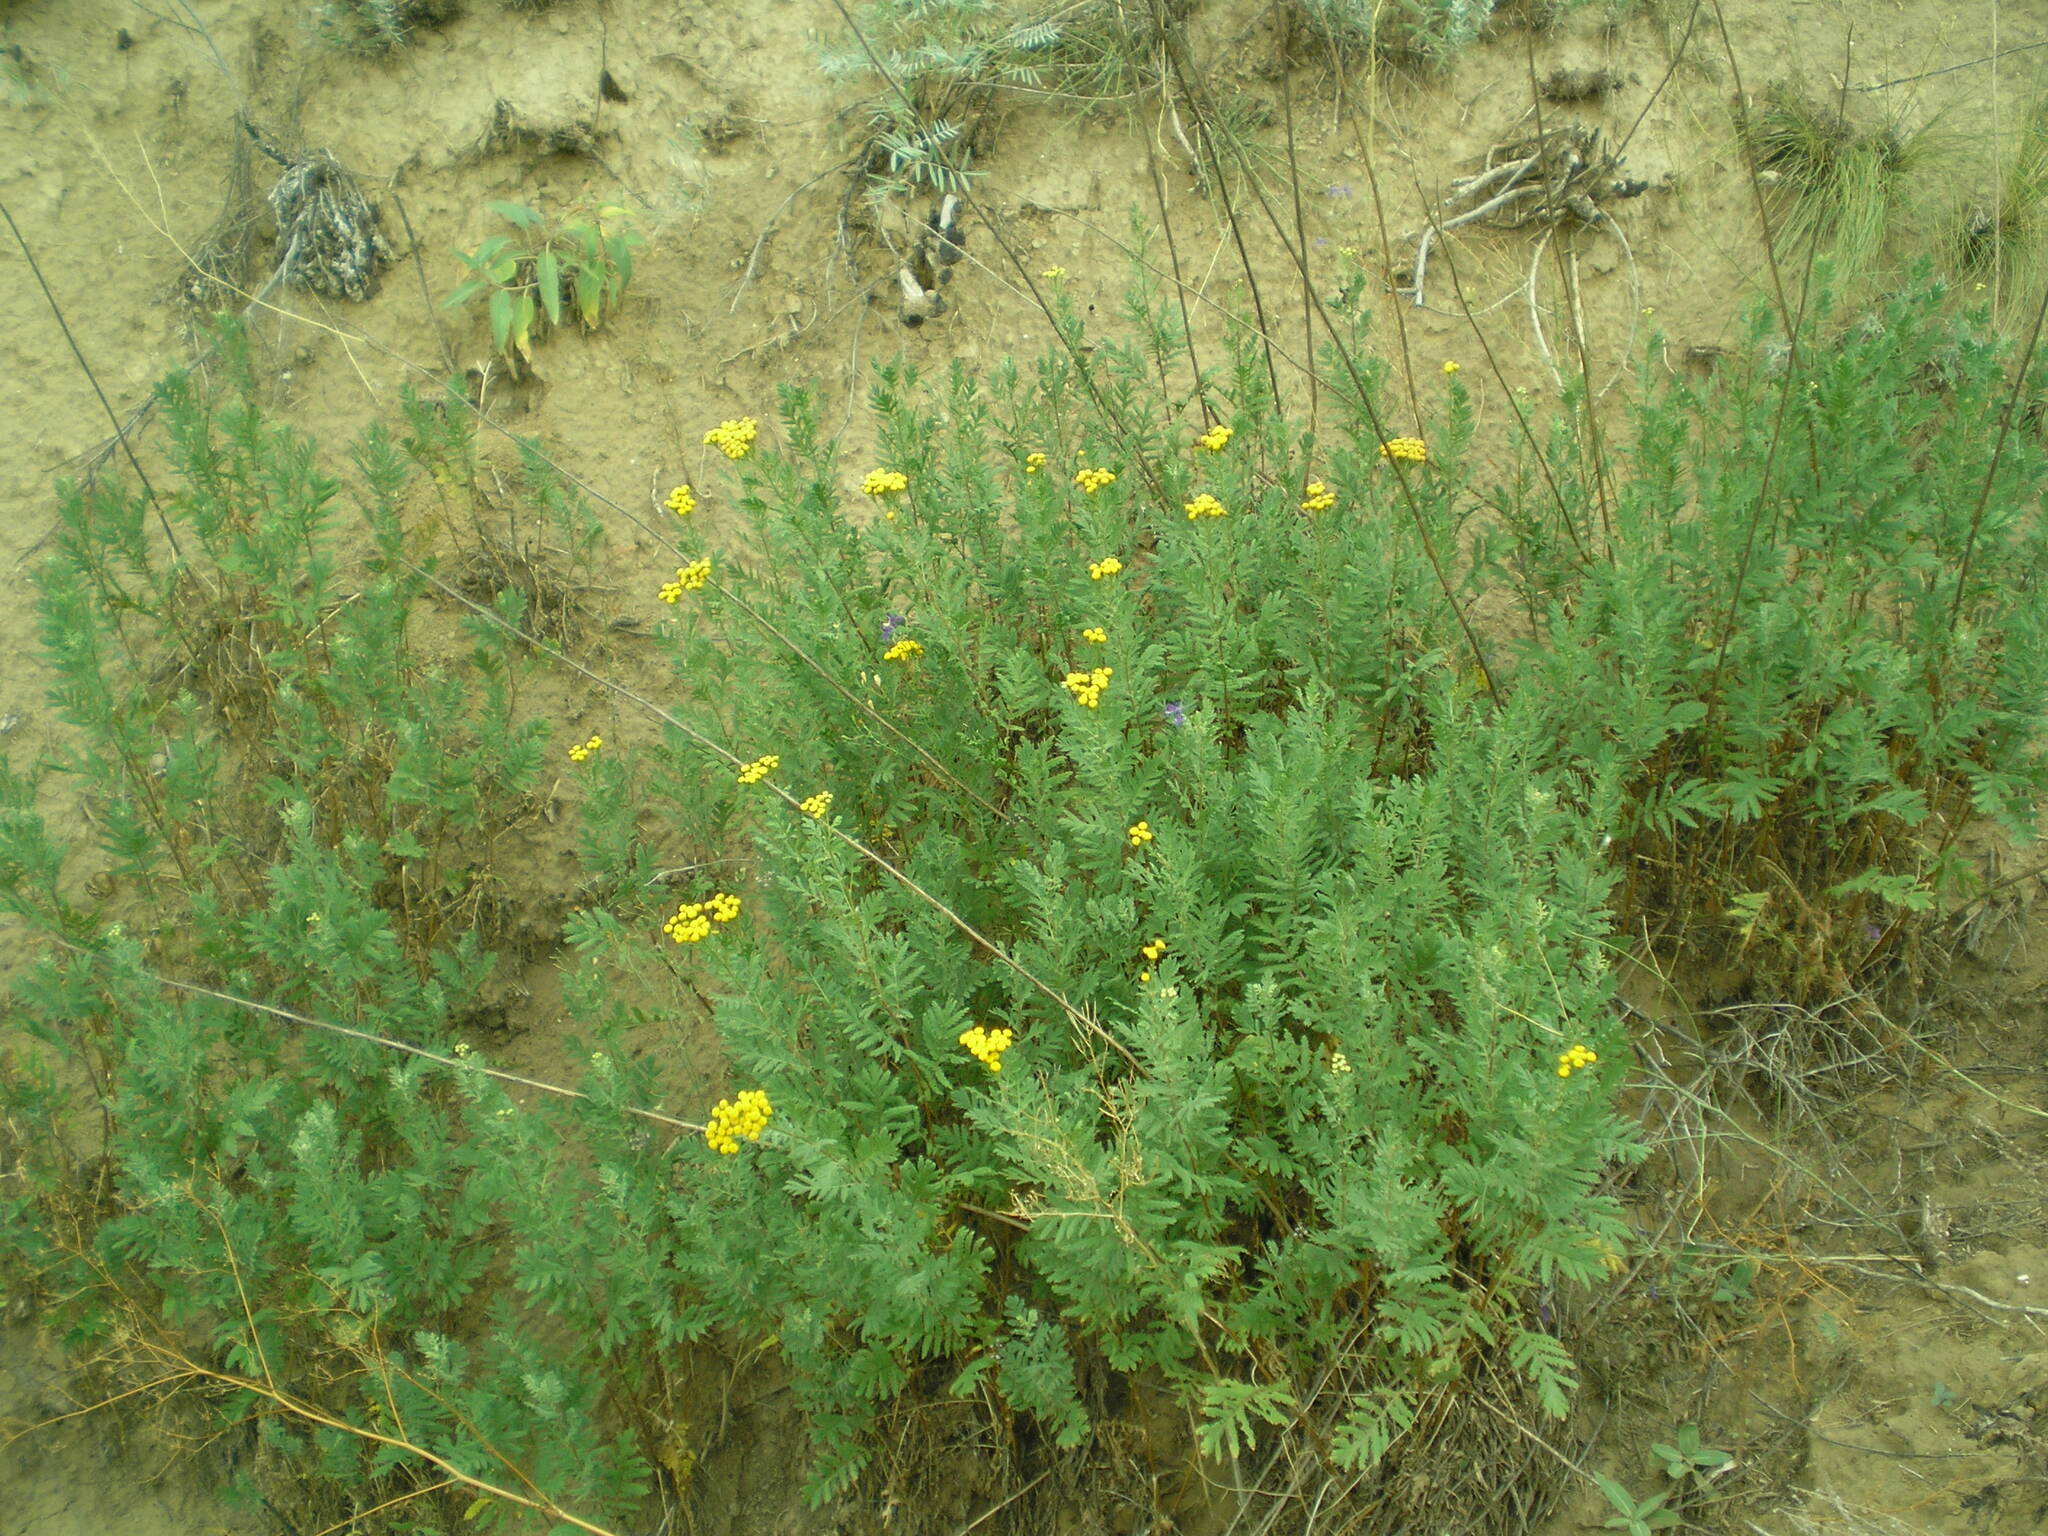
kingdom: Plantae
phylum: Tracheophyta
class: Magnoliopsida
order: Asterales
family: Asteraceae
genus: Tanacetum
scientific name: Tanacetum vulgare
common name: Common tansy
